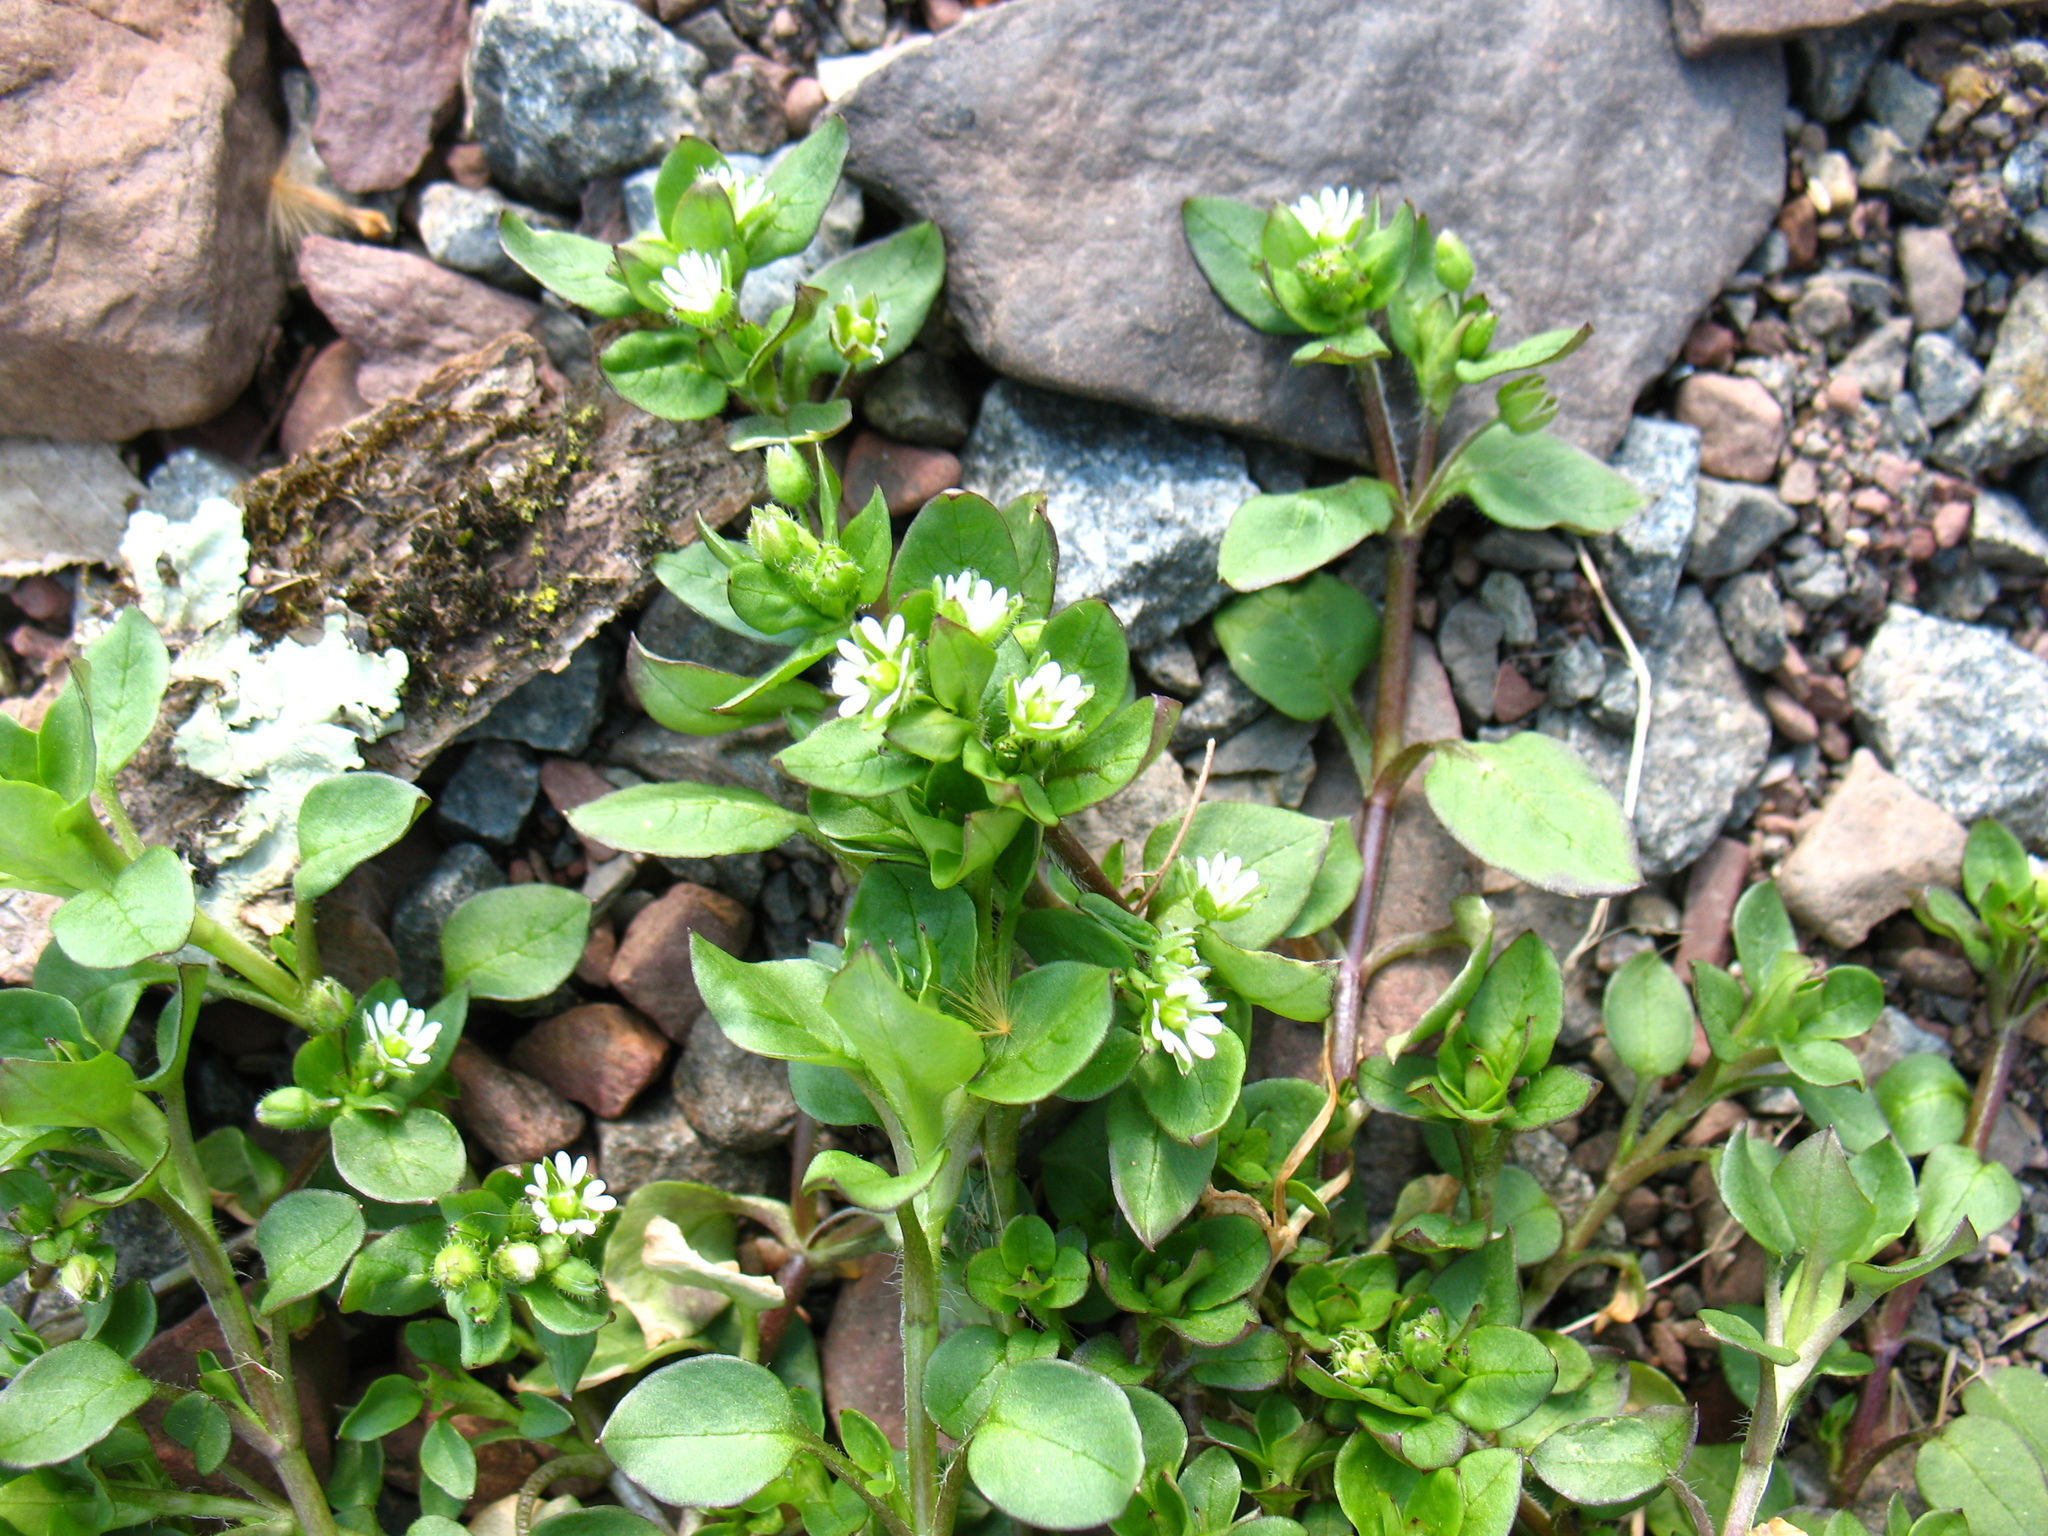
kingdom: Plantae
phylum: Tracheophyta
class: Magnoliopsida
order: Caryophyllales
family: Caryophyllaceae
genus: Stellaria
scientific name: Stellaria media
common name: Common chickweed
